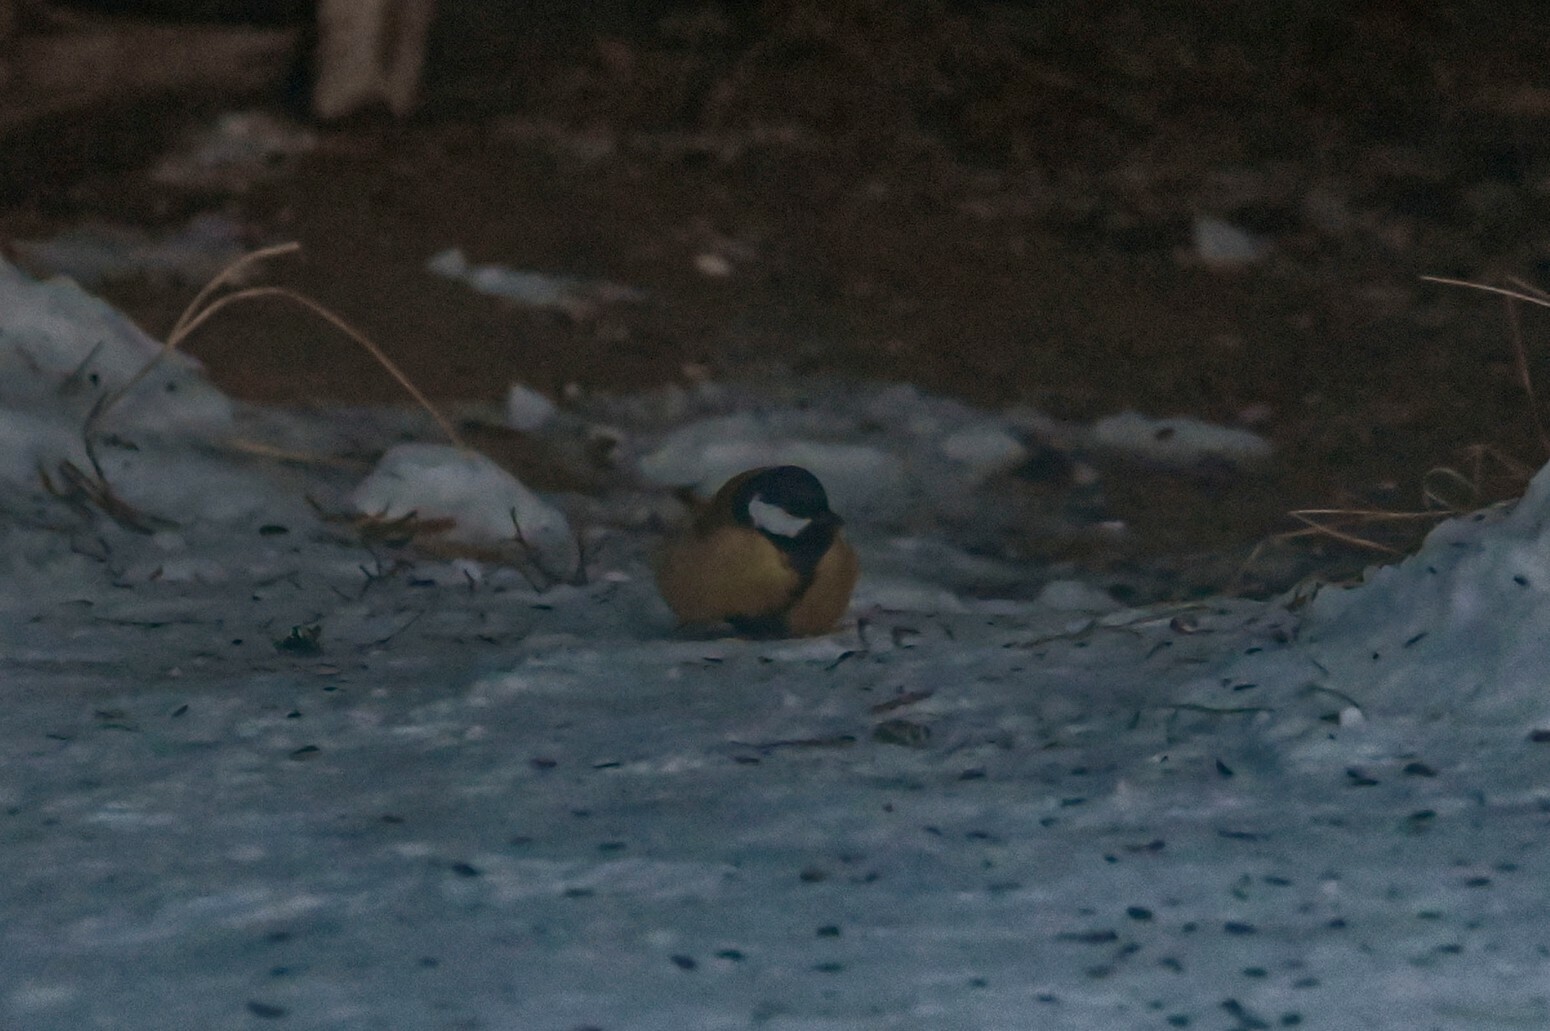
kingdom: Animalia
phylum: Chordata
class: Aves
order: Passeriformes
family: Paridae
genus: Parus
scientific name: Parus major
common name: Great tit
